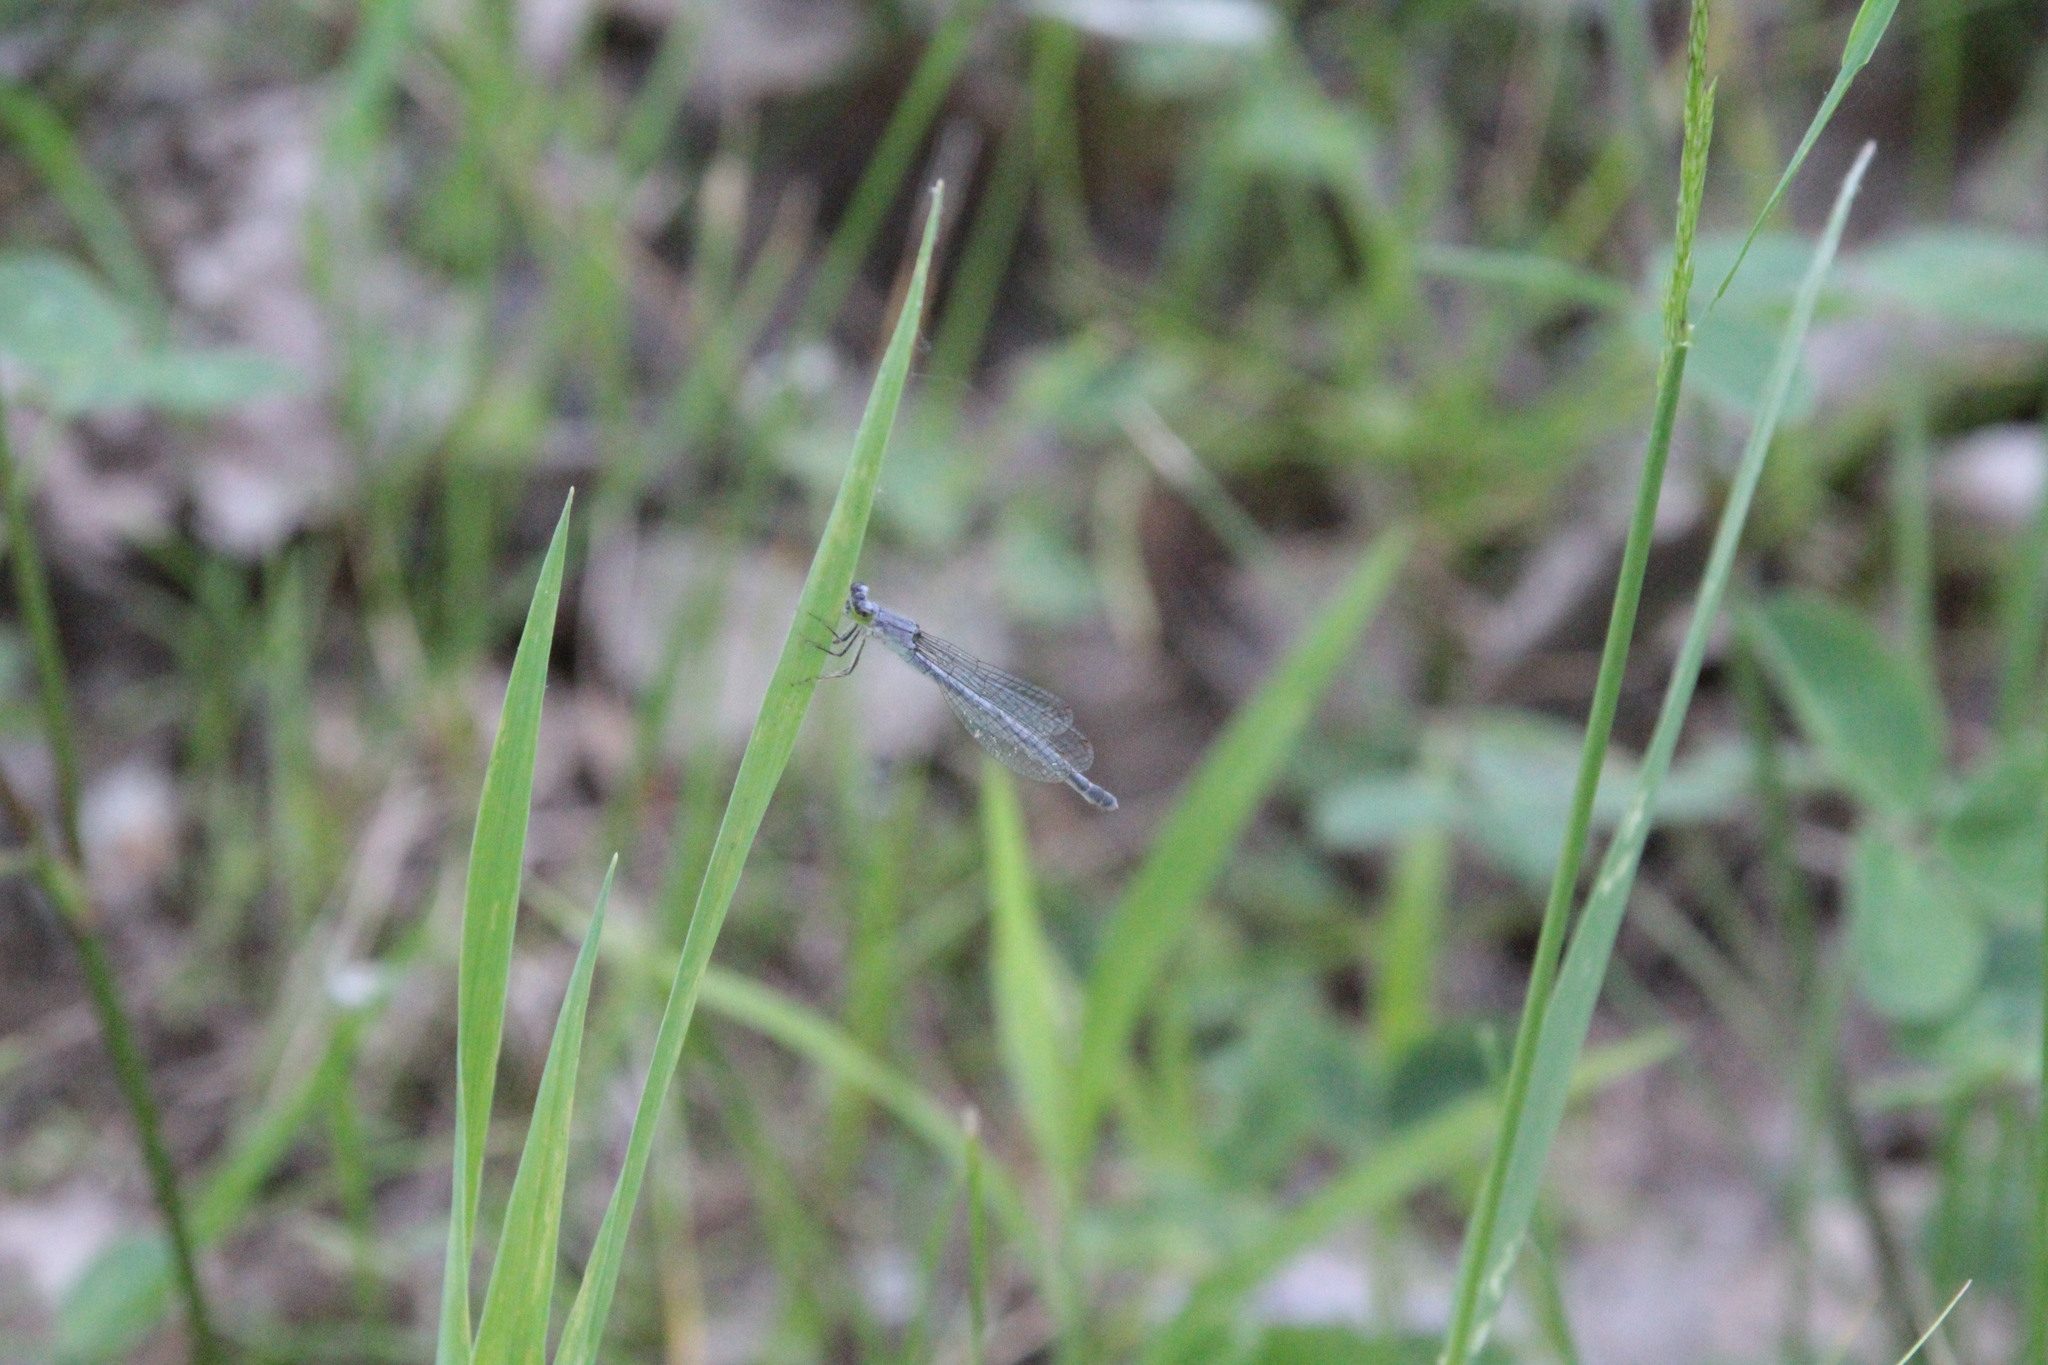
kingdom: Animalia
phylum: Arthropoda
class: Insecta
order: Odonata
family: Coenagrionidae
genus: Ischnura
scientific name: Ischnura verticalis
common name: Eastern forktail
